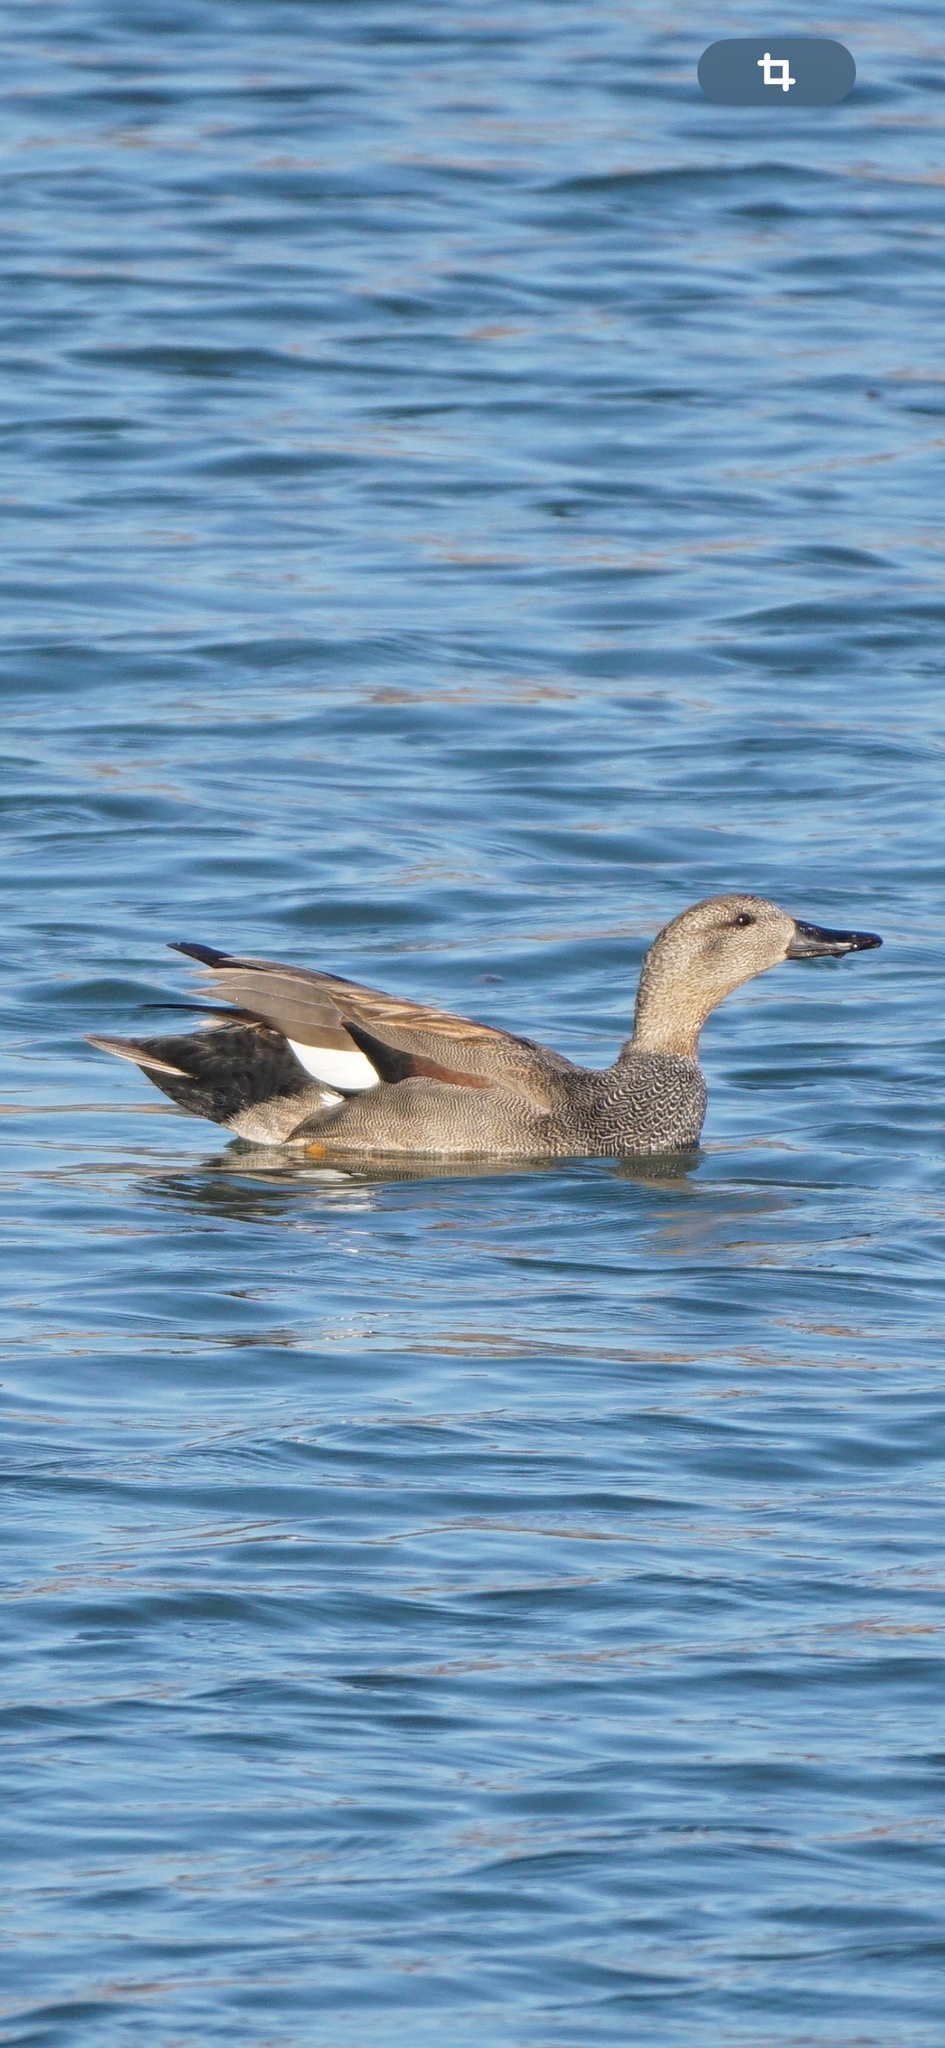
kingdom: Animalia
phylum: Chordata
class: Aves
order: Anseriformes
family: Anatidae
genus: Mareca
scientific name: Mareca strepera
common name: Gadwall
